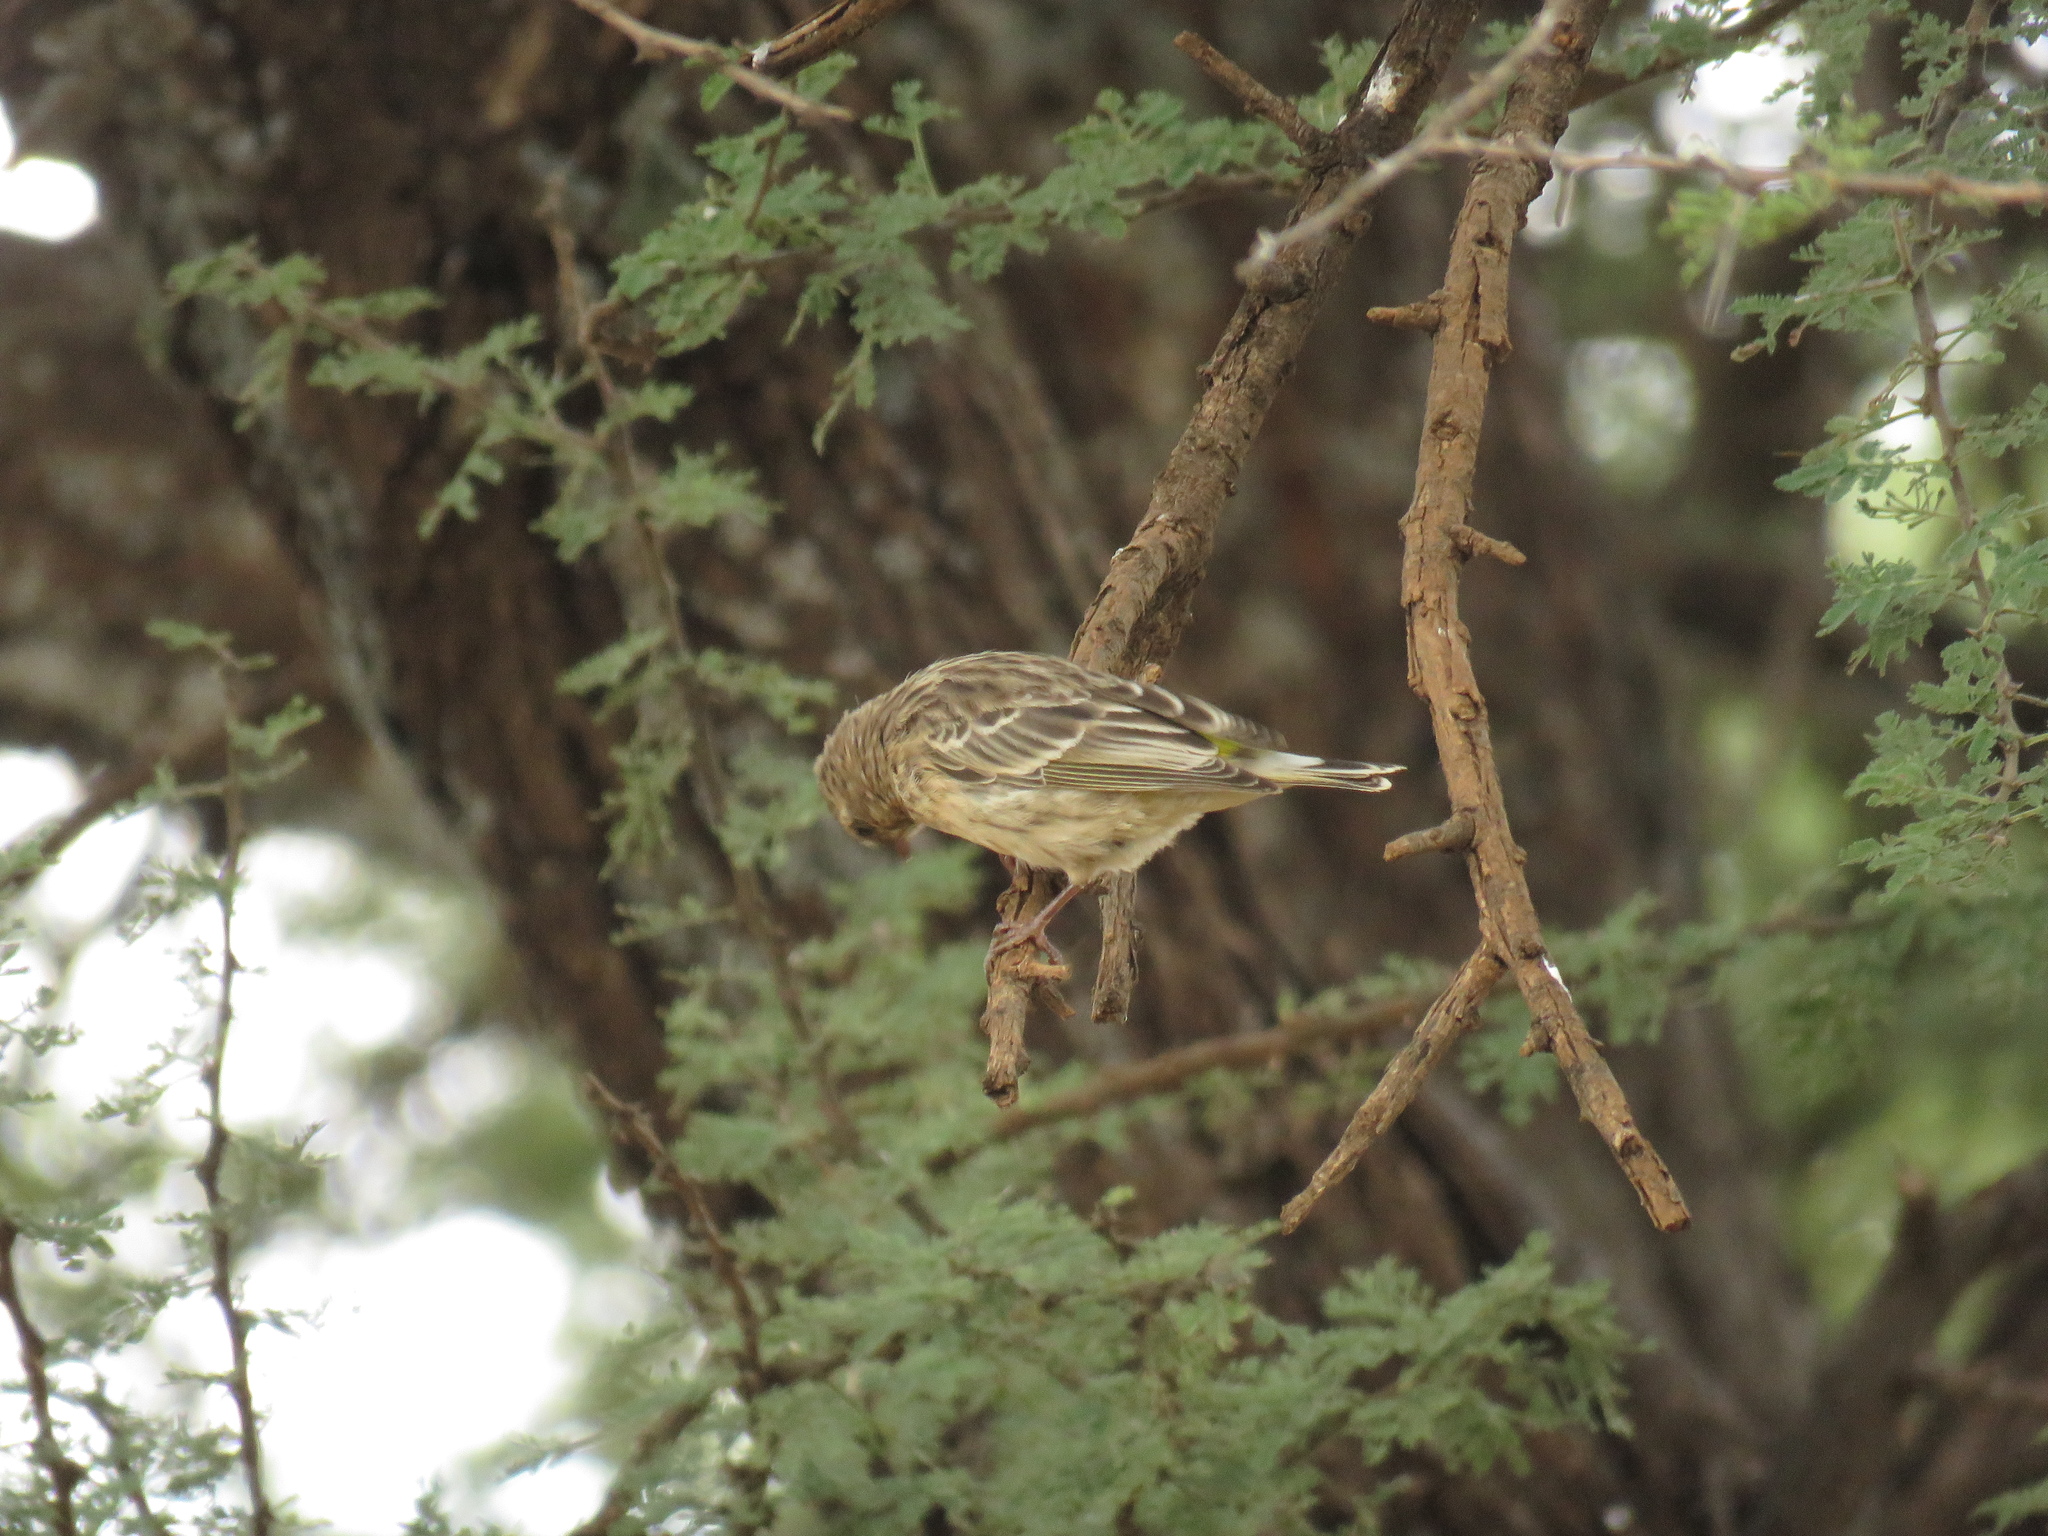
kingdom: Animalia
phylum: Chordata
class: Aves
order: Passeriformes
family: Fringillidae
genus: Crithagra
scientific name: Crithagra atrogularis
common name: Black-throated canary
